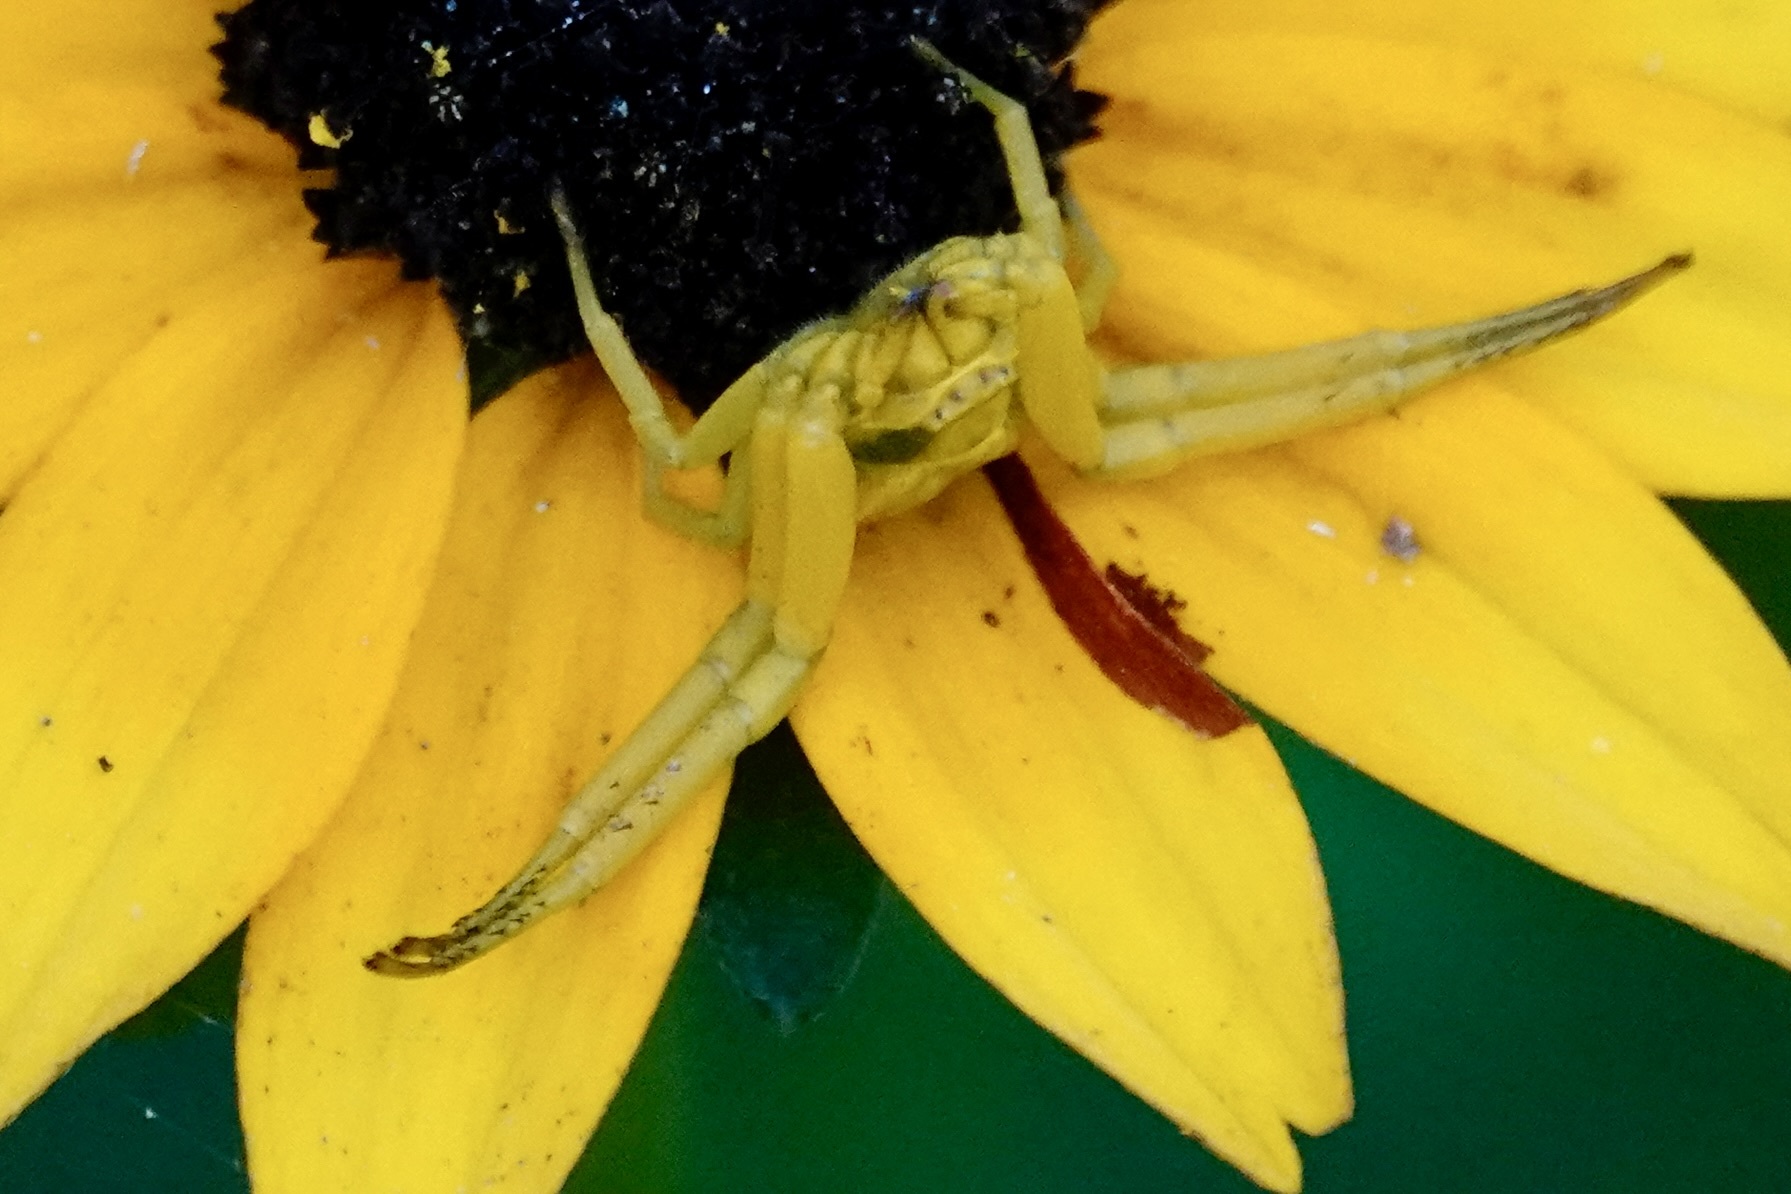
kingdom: Animalia
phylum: Arthropoda
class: Arachnida
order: Araneae
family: Thomisidae
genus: Misumenoides
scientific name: Misumenoides formosipes
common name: White-banded crab spider
